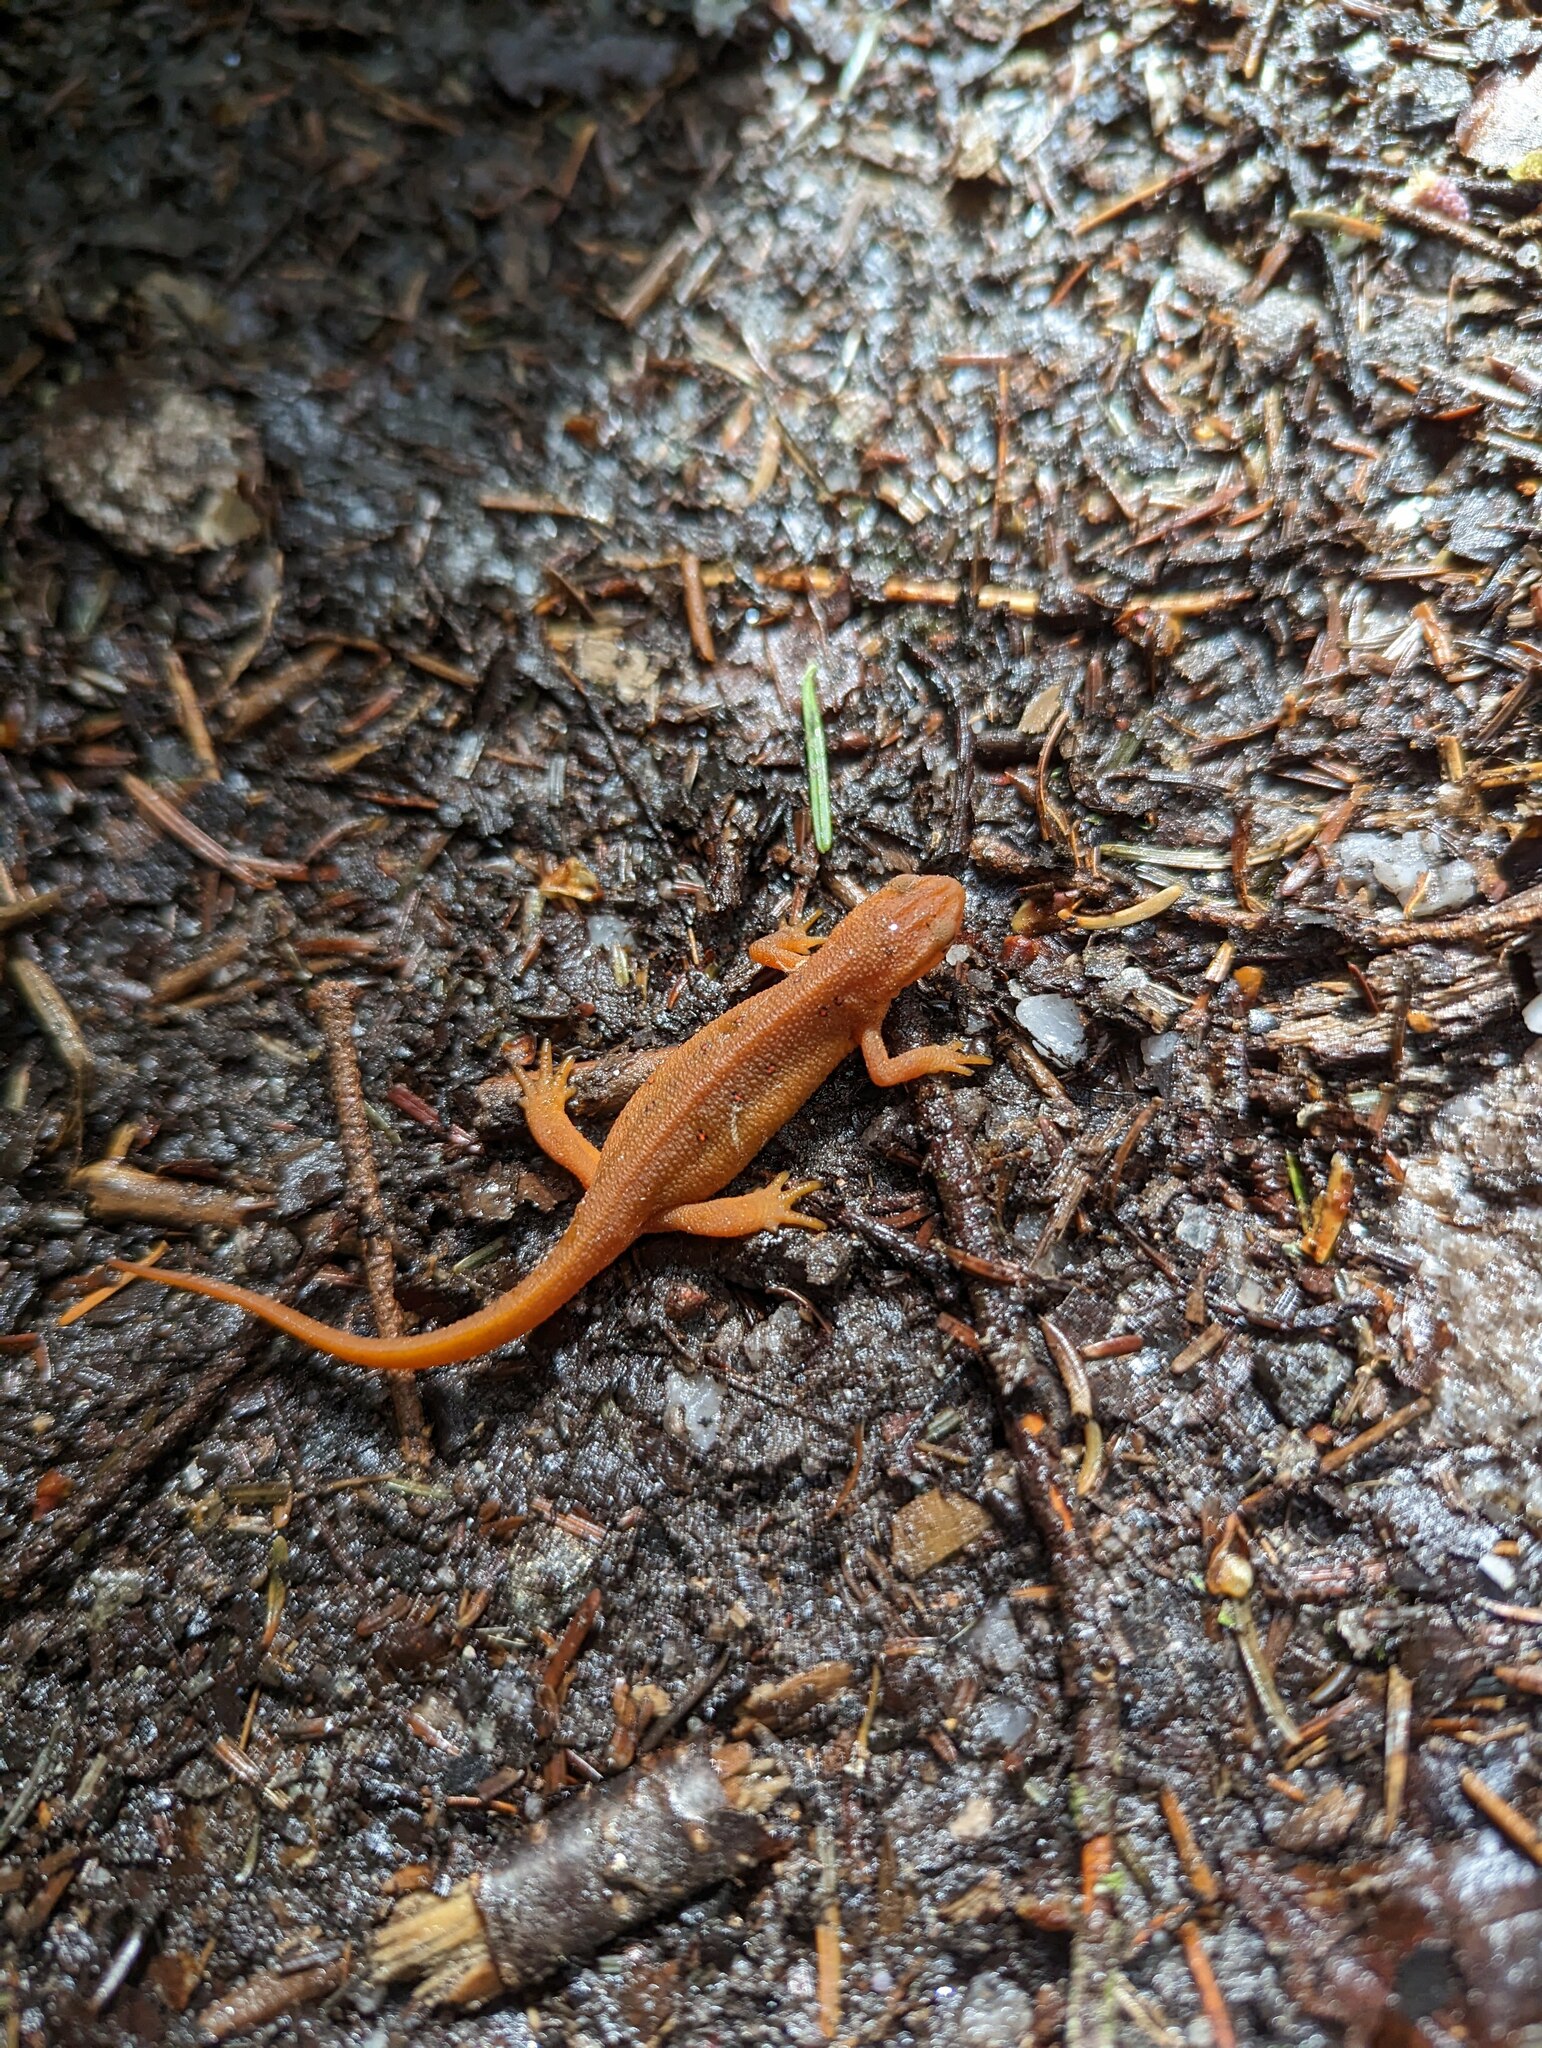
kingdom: Animalia
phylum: Chordata
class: Amphibia
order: Caudata
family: Salamandridae
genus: Notophthalmus
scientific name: Notophthalmus viridescens
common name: Eastern newt
